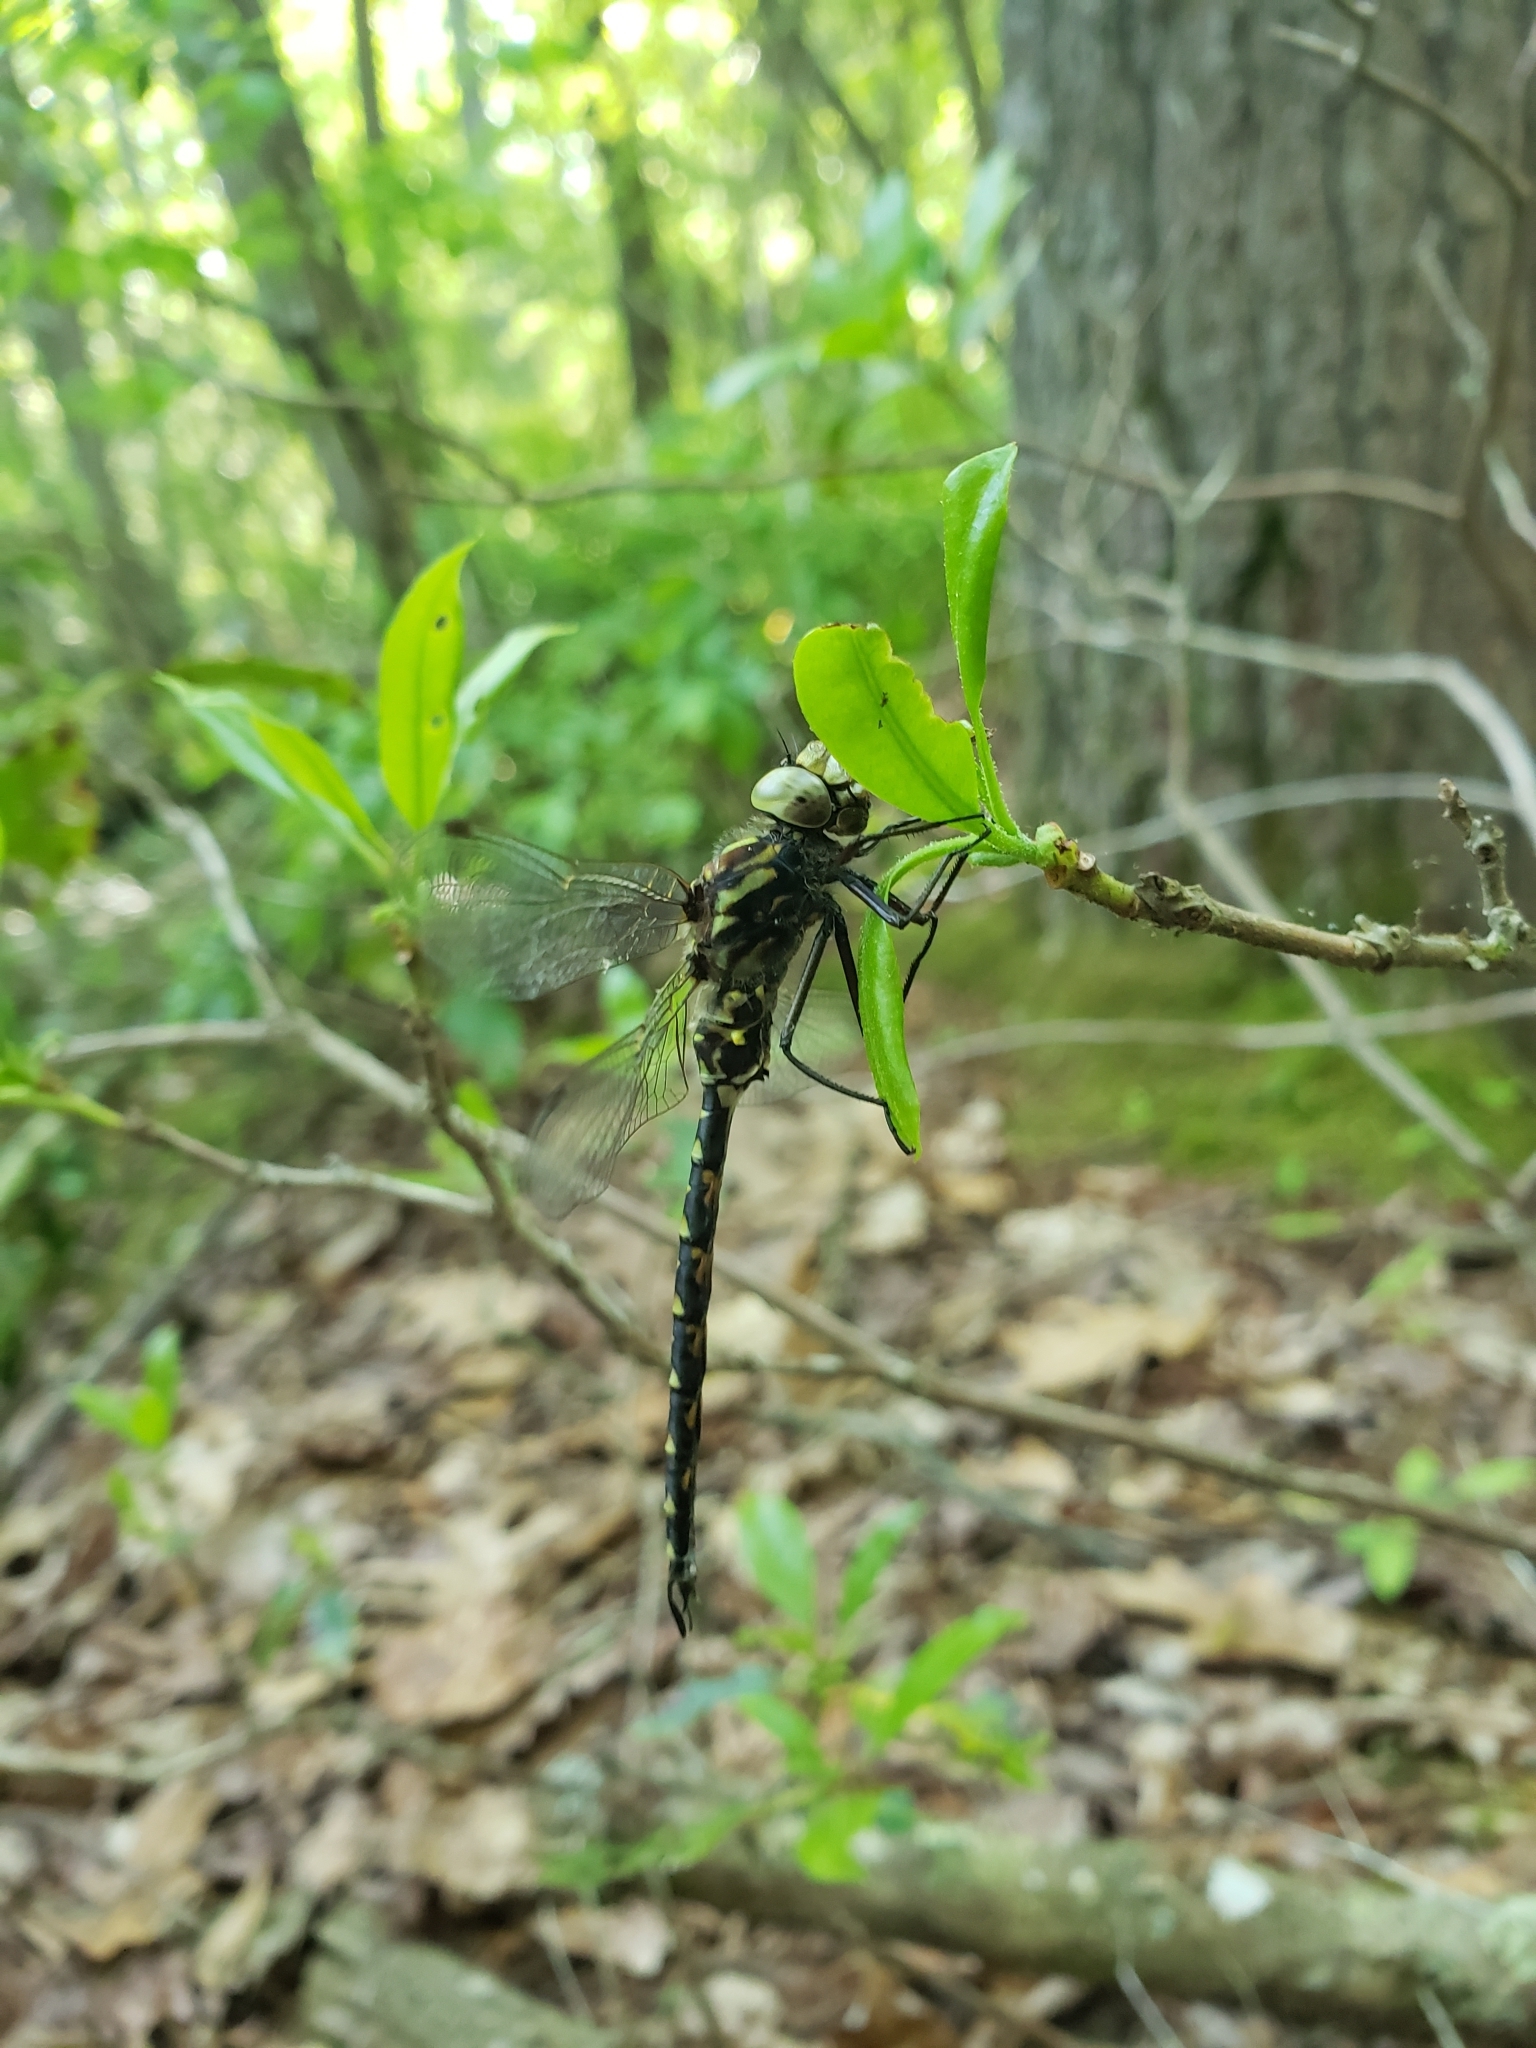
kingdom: Animalia
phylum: Arthropoda
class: Insecta
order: Odonata
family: Aeshnidae
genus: Gomphaeschna
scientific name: Gomphaeschna furcillata
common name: Harlequin darner
